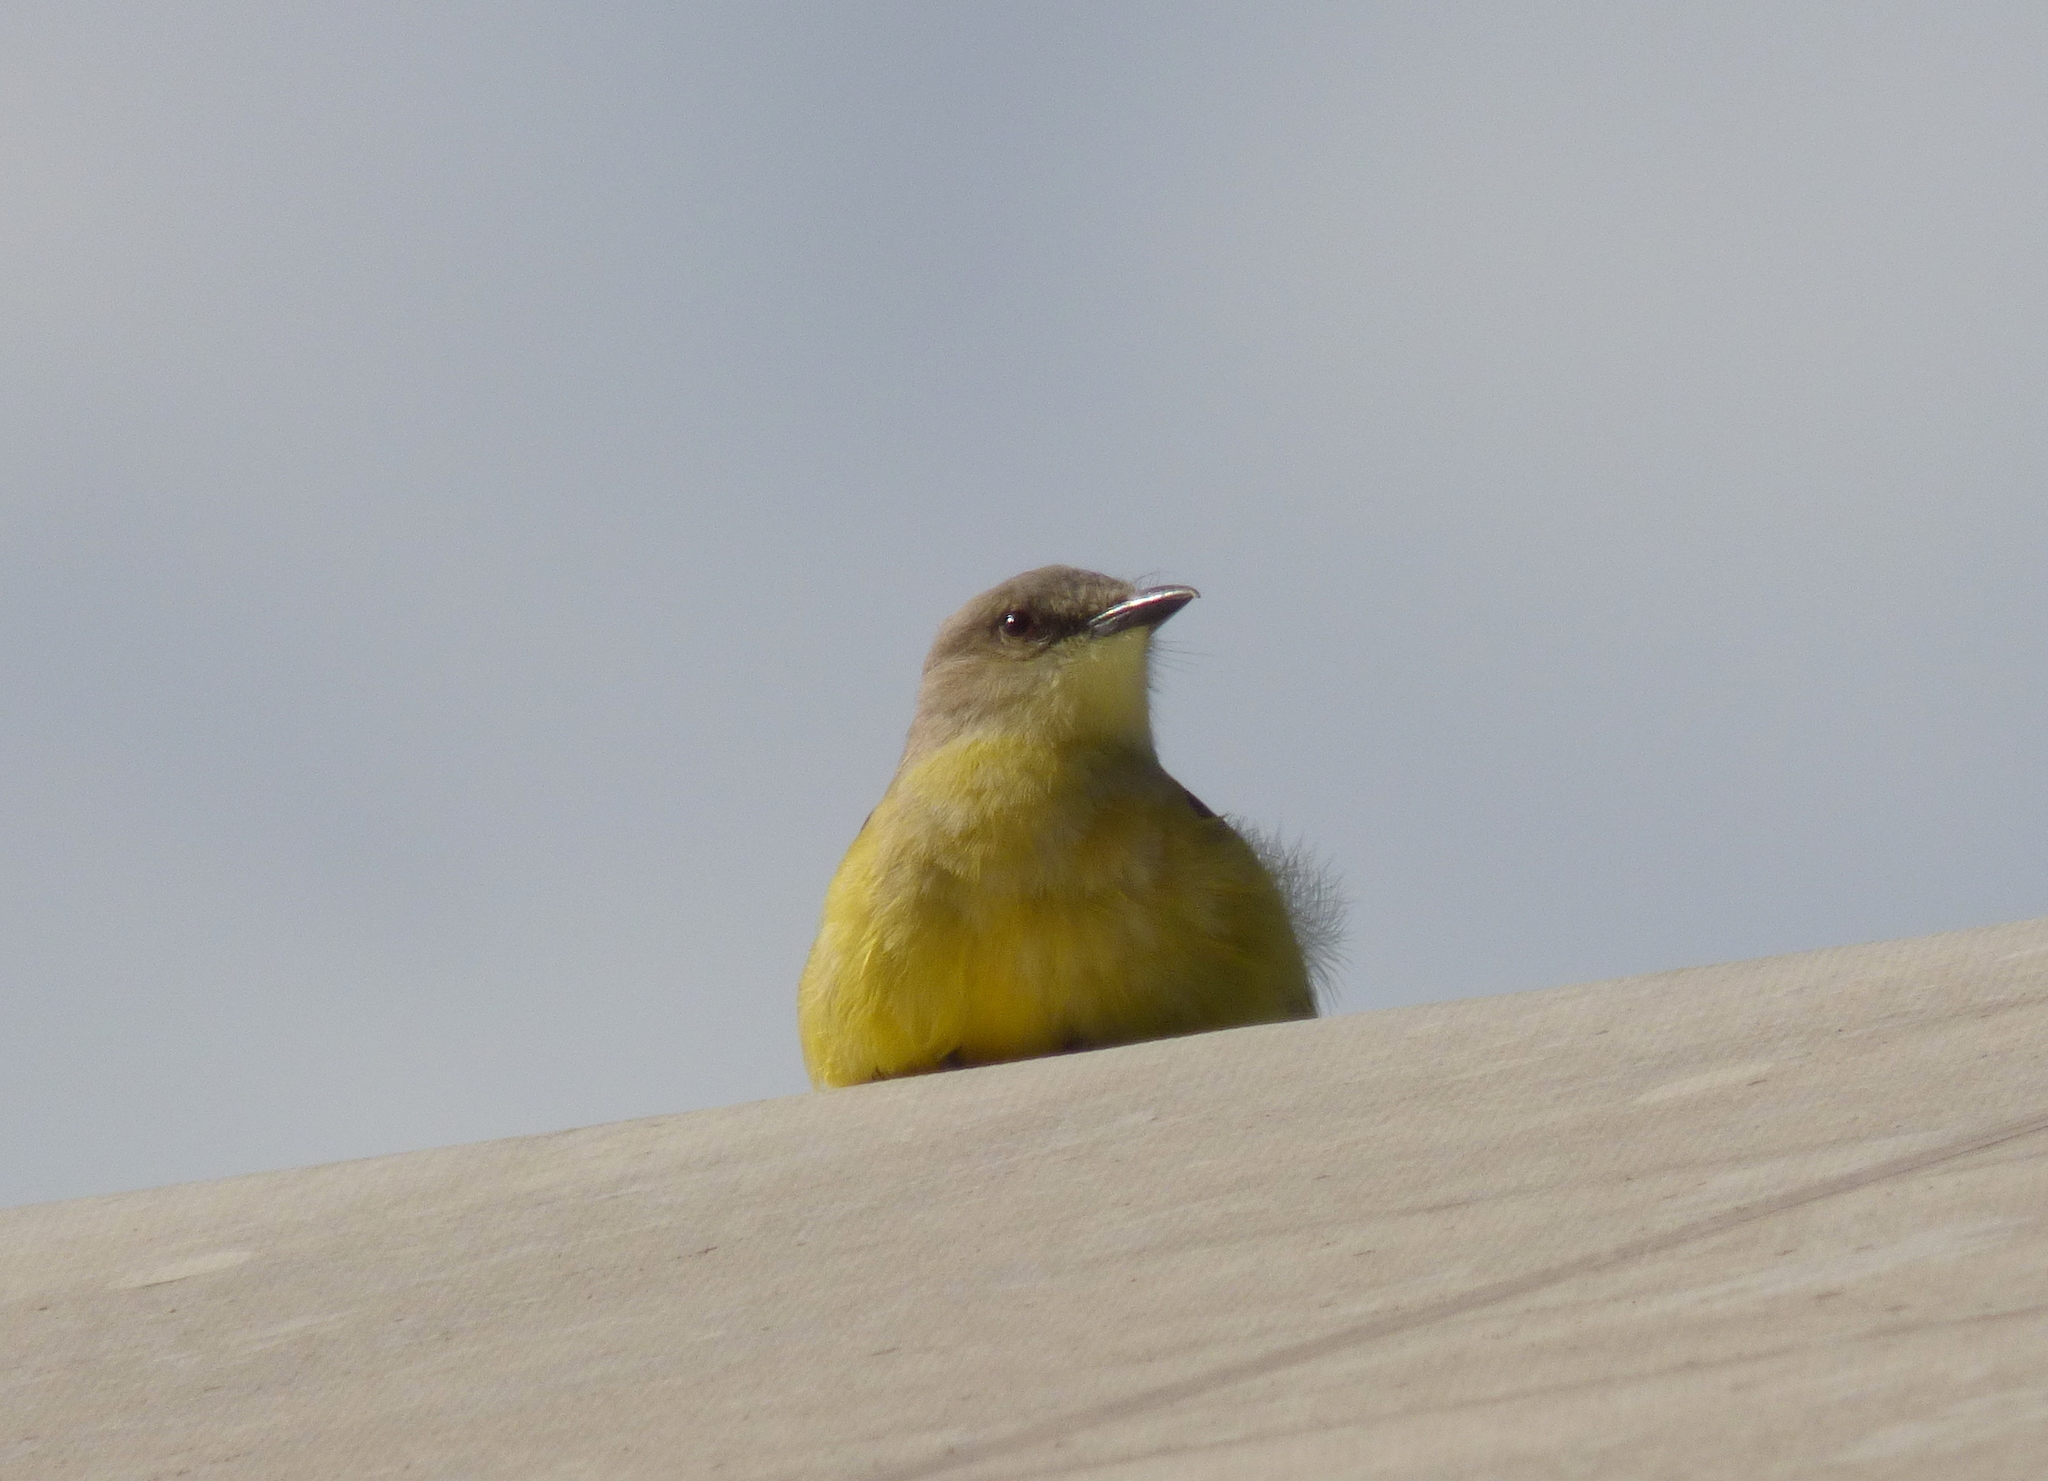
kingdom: Animalia
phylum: Chordata
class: Aves
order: Passeriformes
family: Tyrannidae
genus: Machetornis
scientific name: Machetornis rixosa
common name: Cattle tyrant
